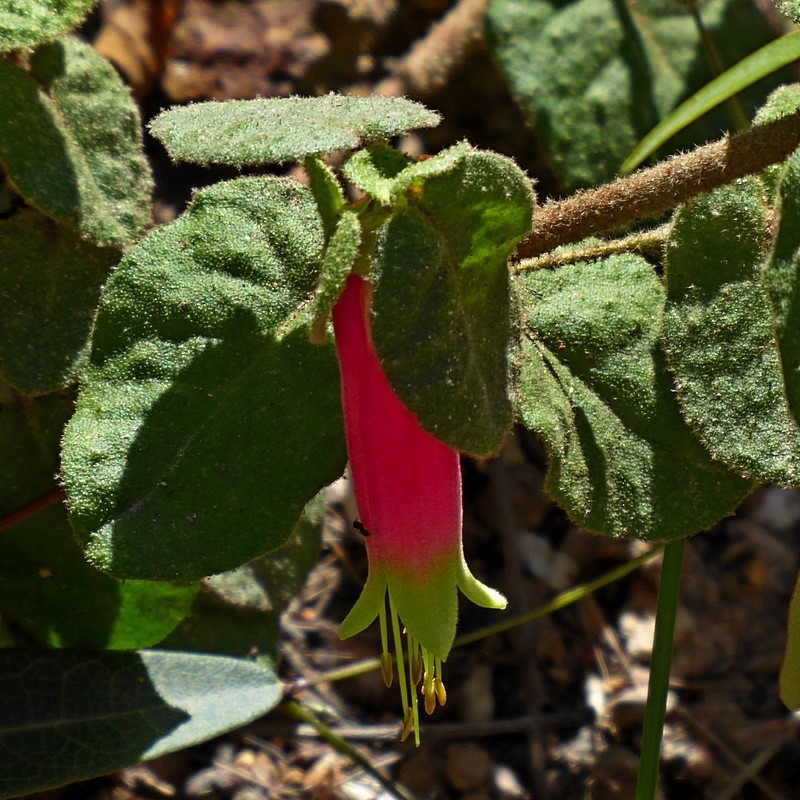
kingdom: Plantae
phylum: Tracheophyta
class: Magnoliopsida
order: Sapindales
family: Rutaceae
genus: Correa
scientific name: Correa reflexa
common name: Common correa
